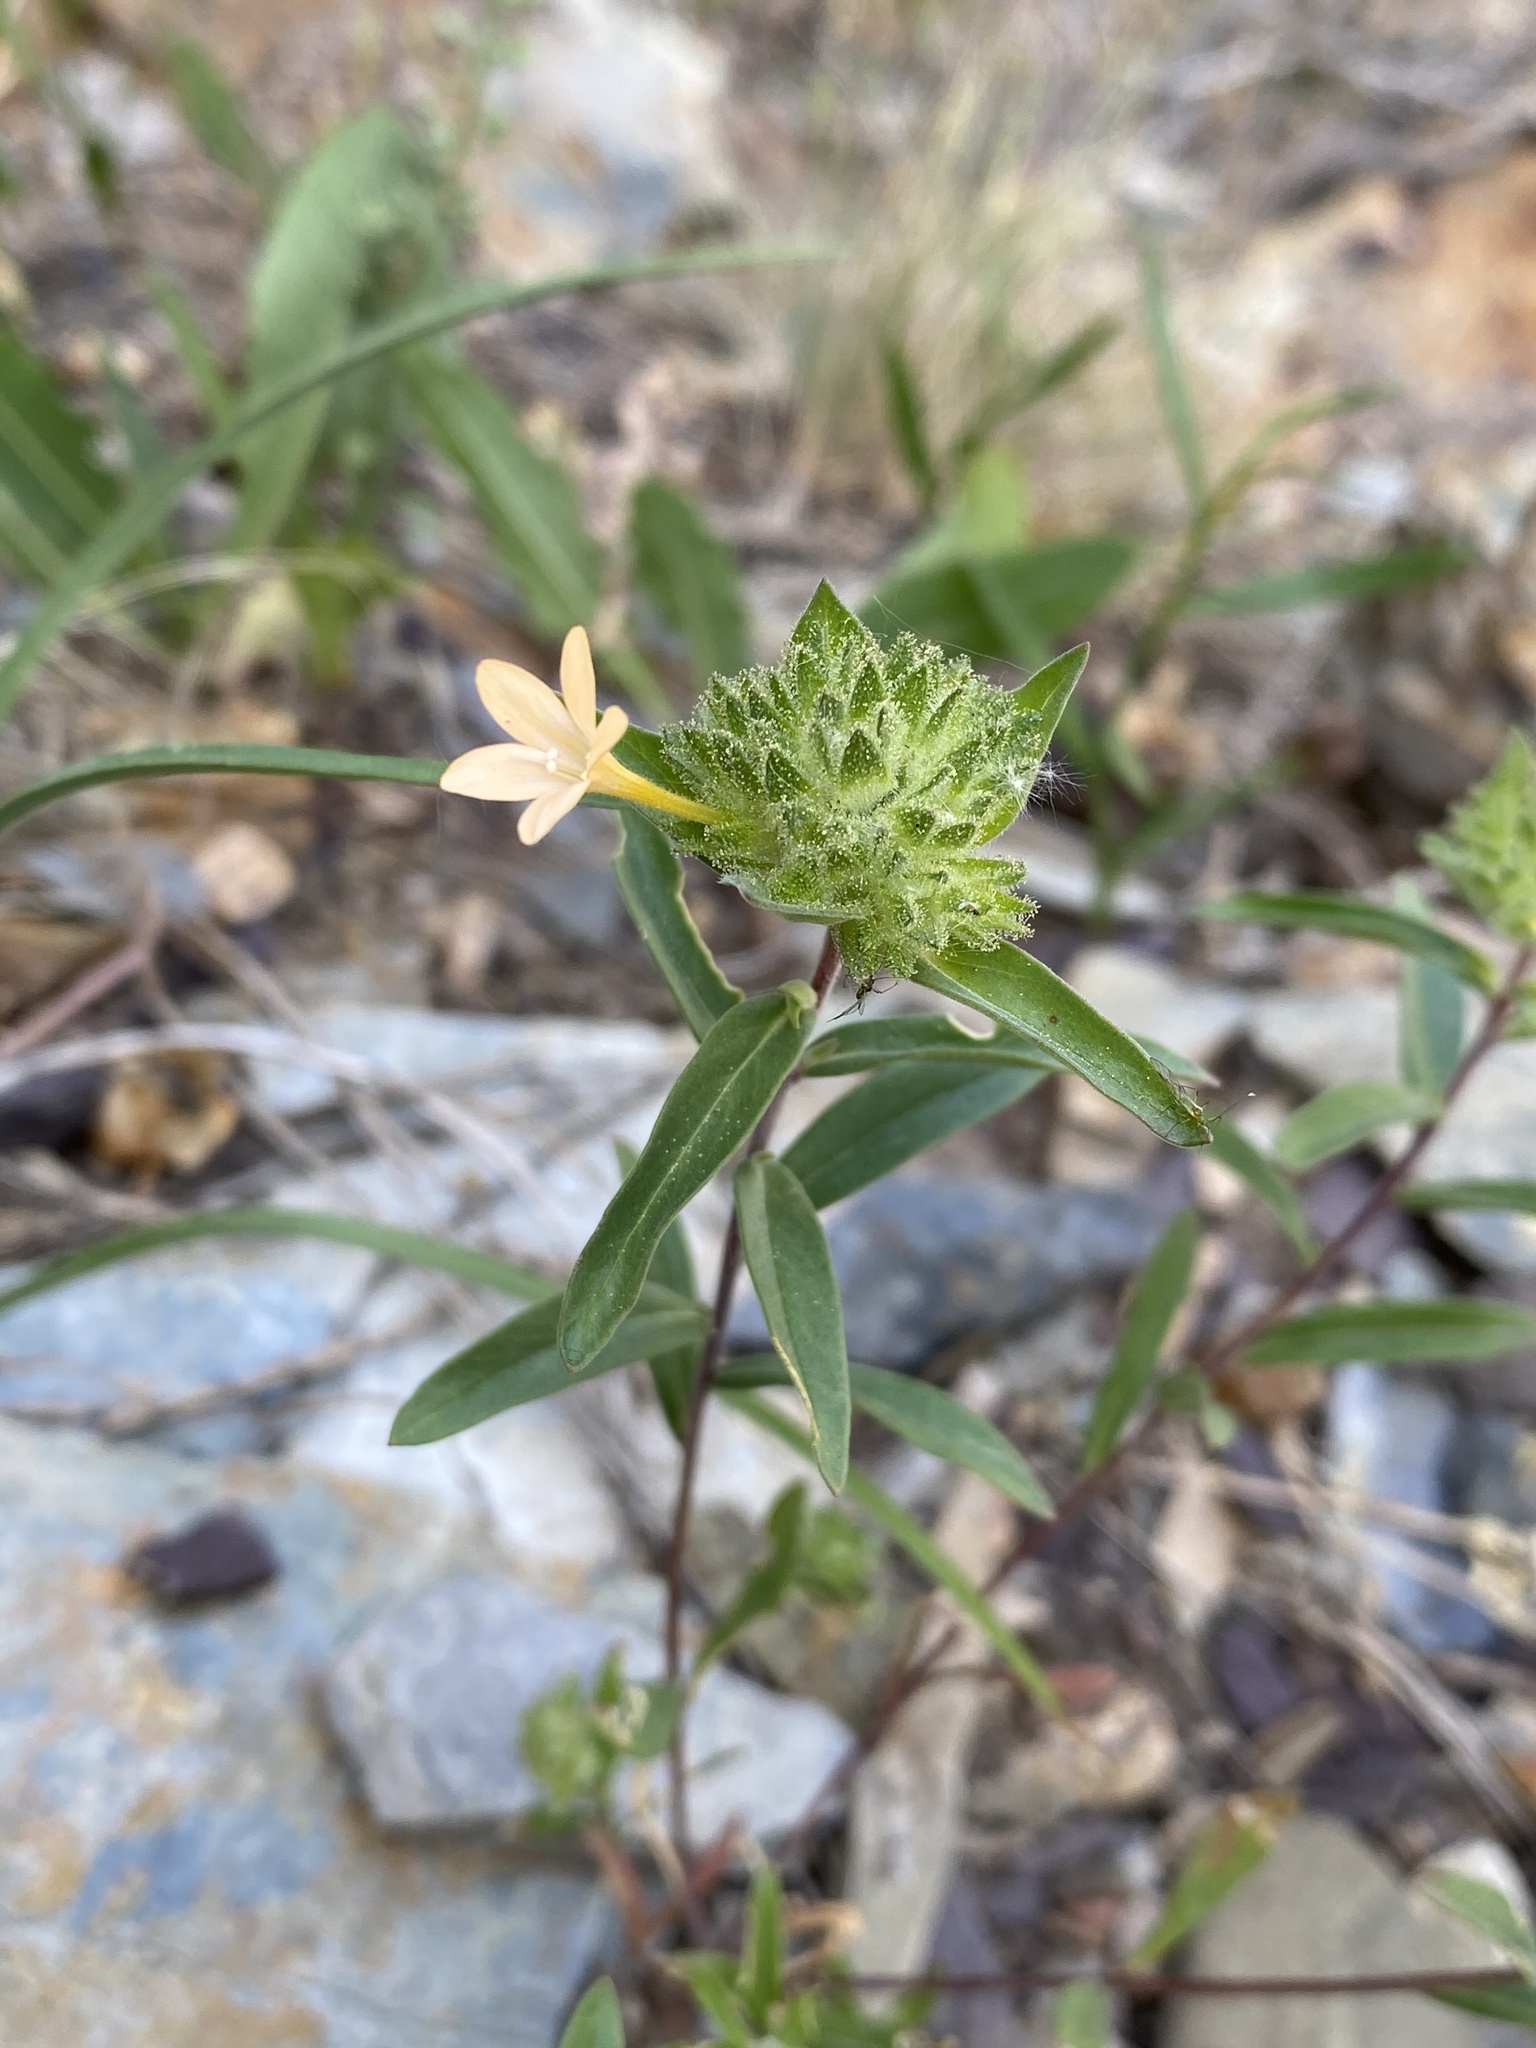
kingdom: Plantae
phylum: Tracheophyta
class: Magnoliopsida
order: Ericales
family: Polemoniaceae
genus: Collomia
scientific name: Collomia grandiflora
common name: California strawflower
